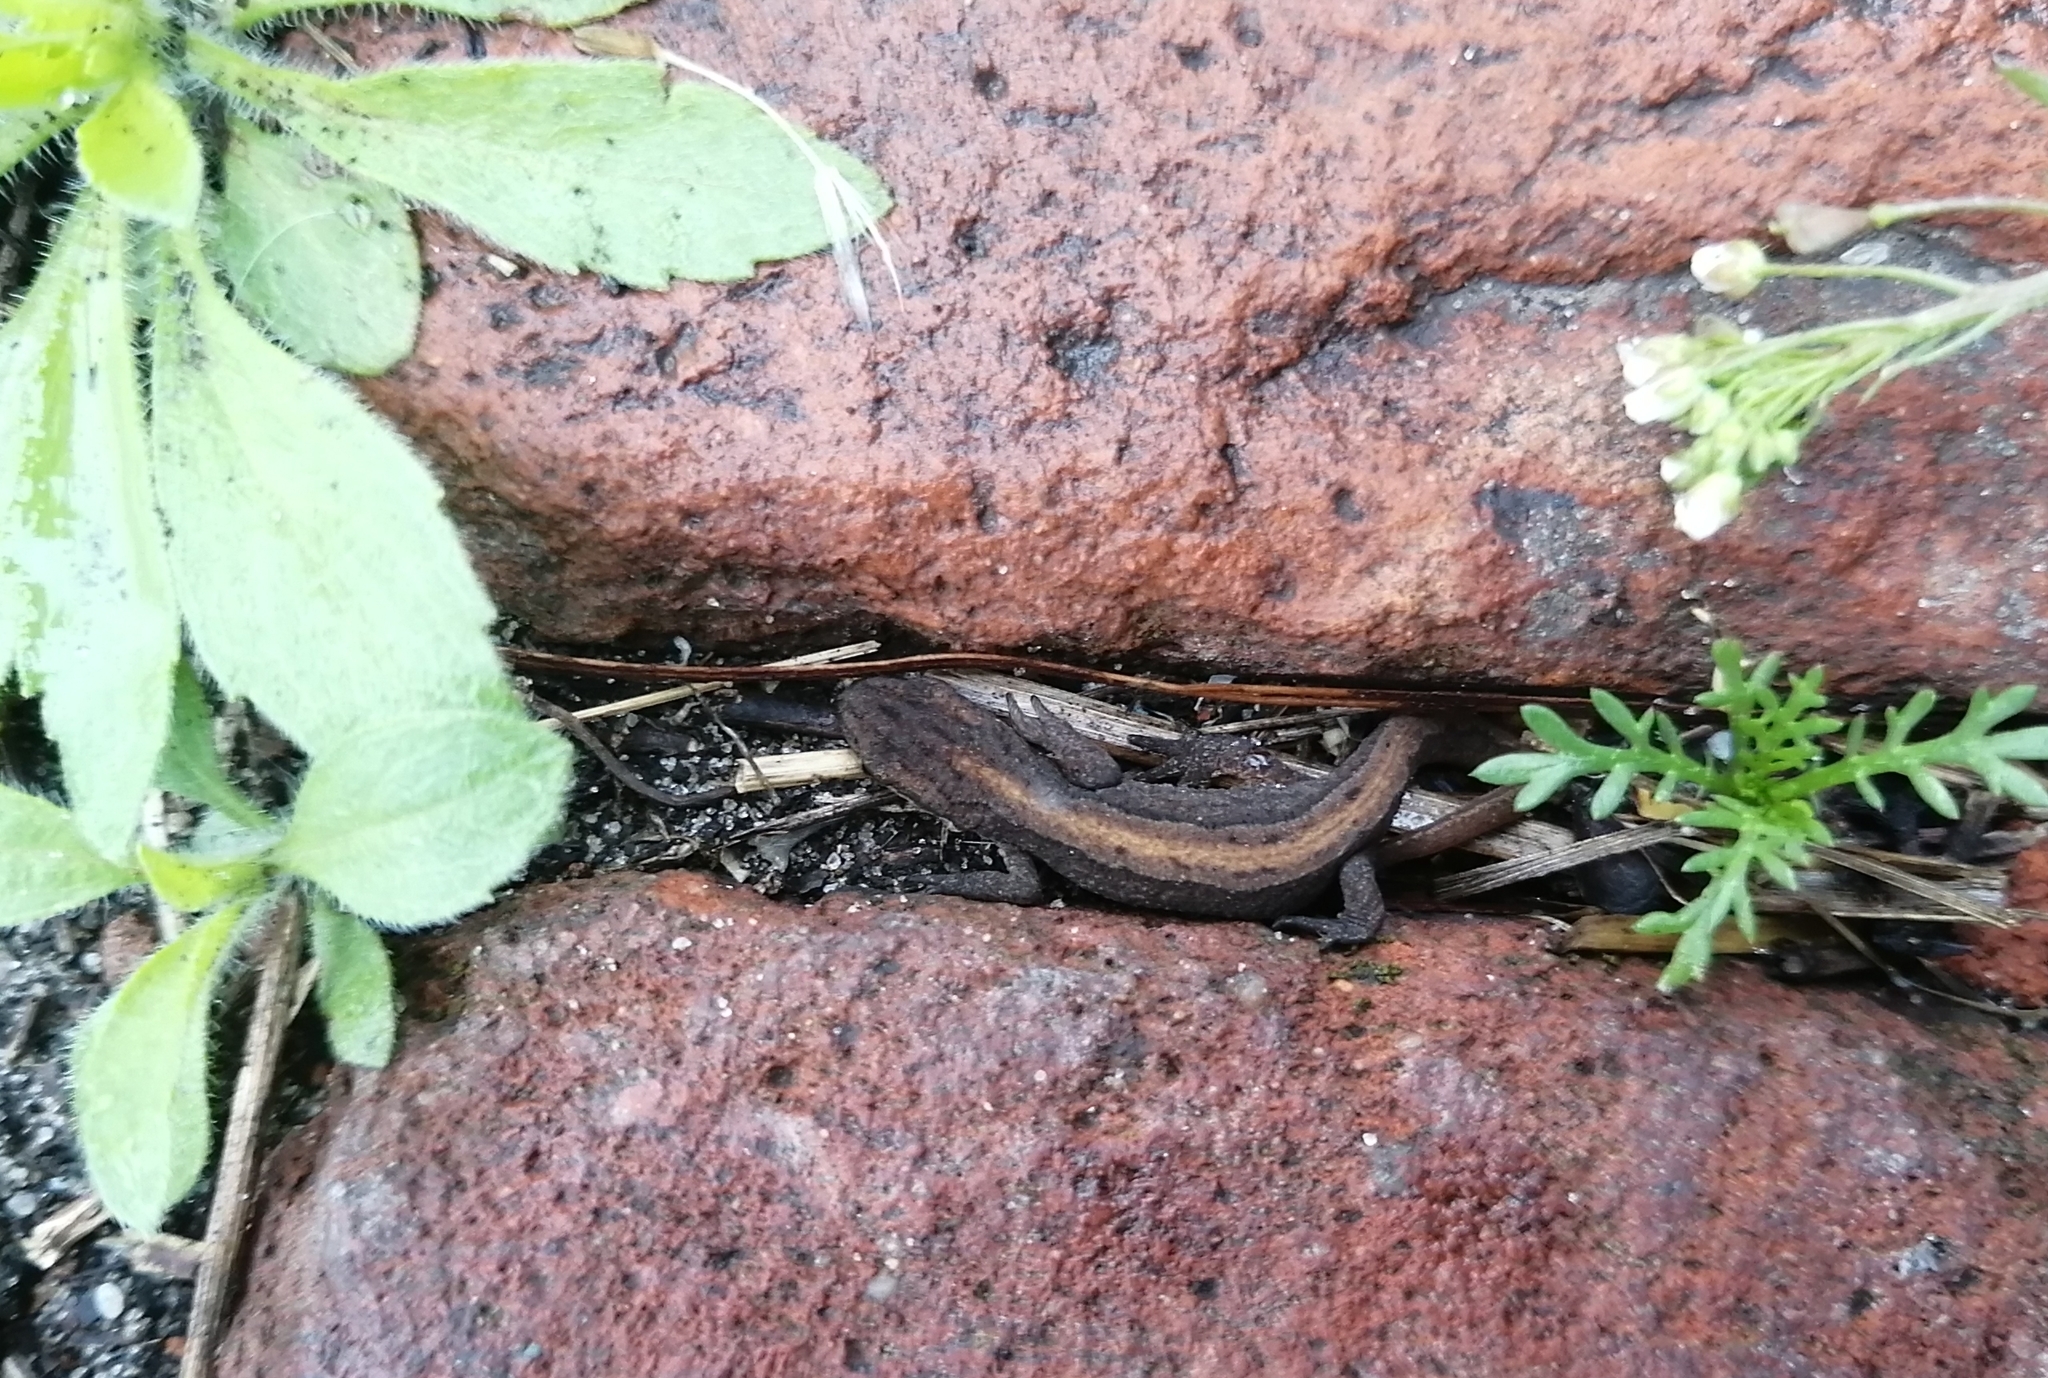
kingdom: Animalia
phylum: Chordata
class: Amphibia
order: Caudata
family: Salamandridae
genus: Lissotriton
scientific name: Lissotriton vulgaris
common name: Smooth newt
